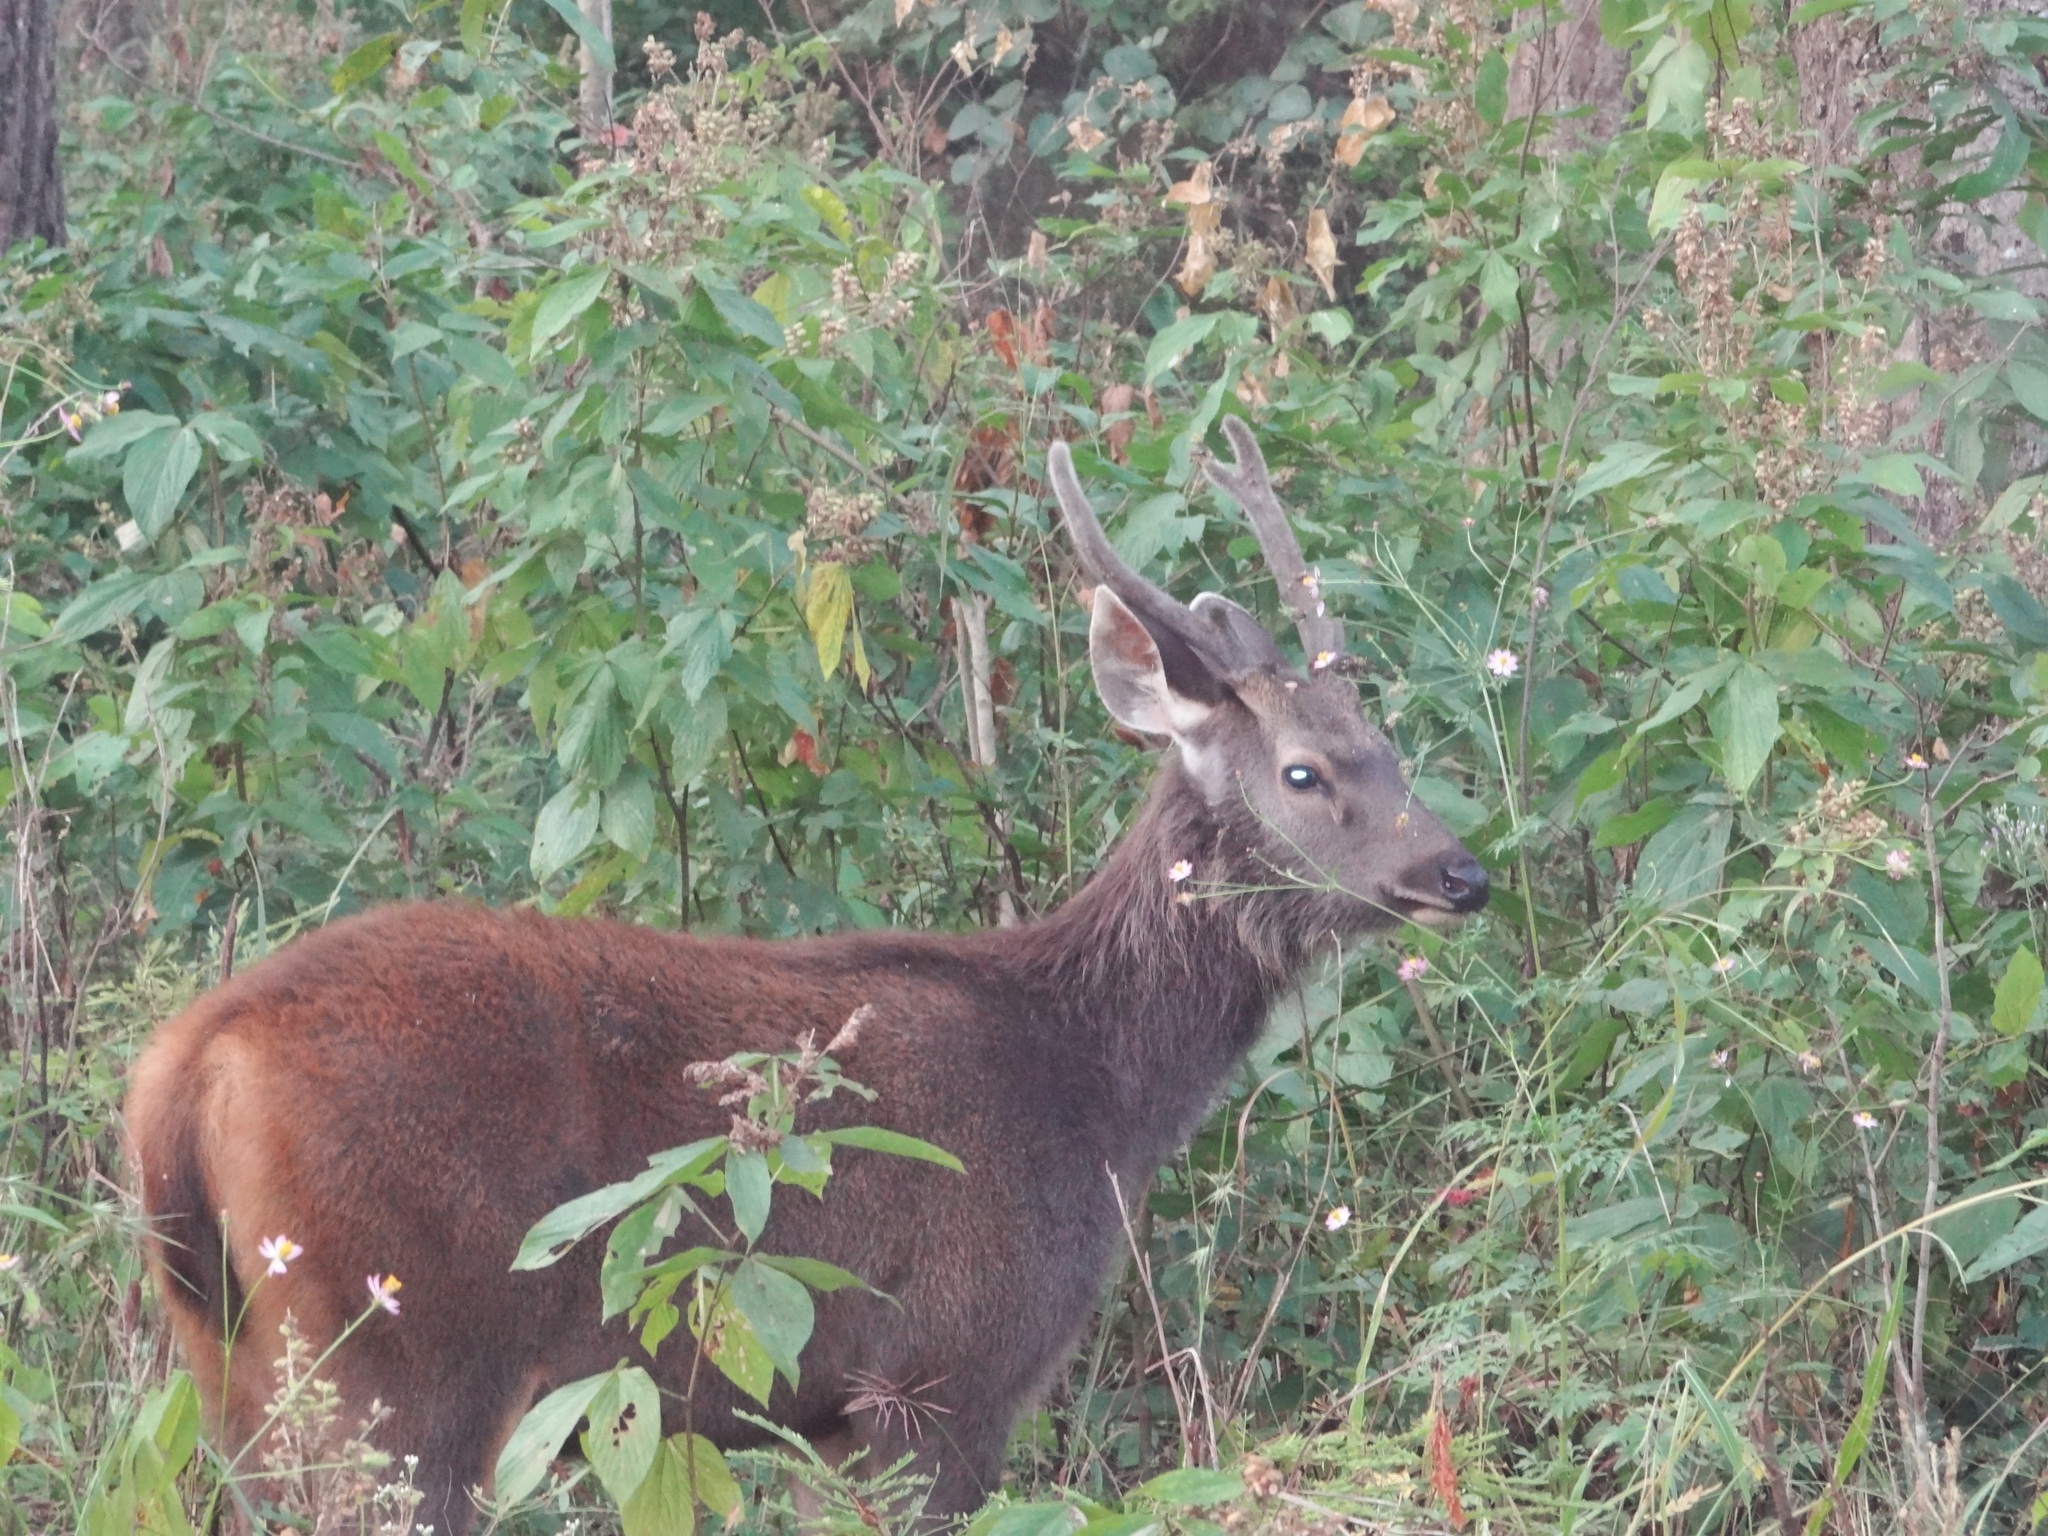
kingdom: Animalia
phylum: Chordata
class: Mammalia
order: Artiodactyla
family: Cervidae
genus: Rusa
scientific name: Rusa unicolor
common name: Sambar
